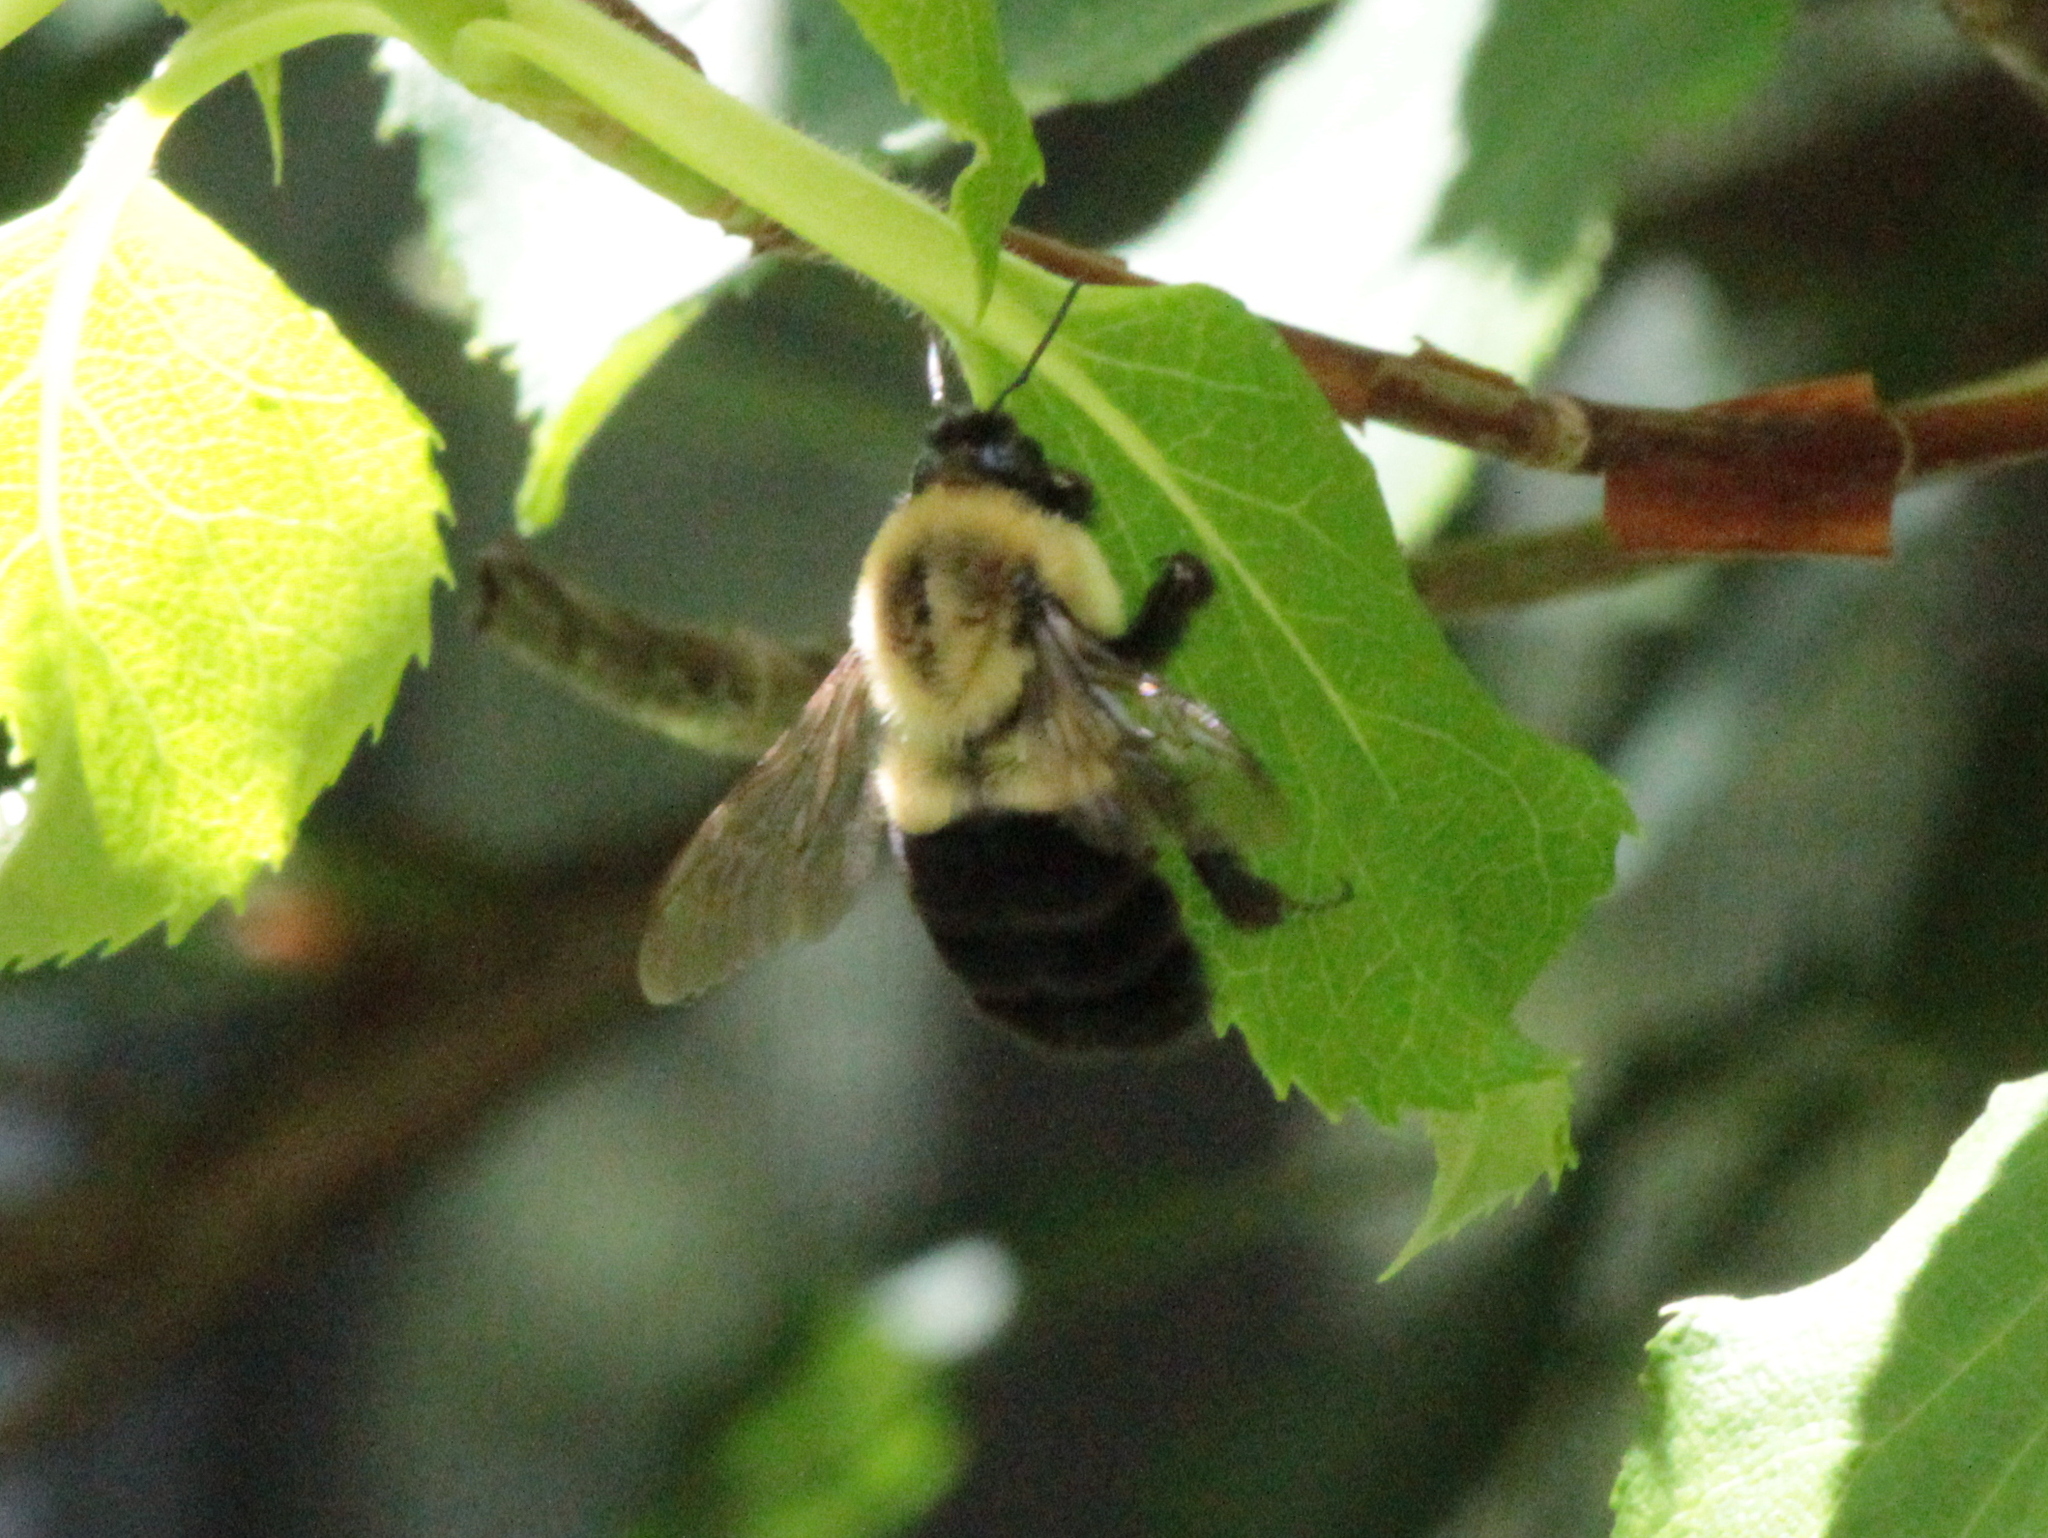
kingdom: Animalia
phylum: Arthropoda
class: Insecta
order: Hymenoptera
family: Apidae
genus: Bombus
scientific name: Bombus impatiens
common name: Common eastern bumble bee
